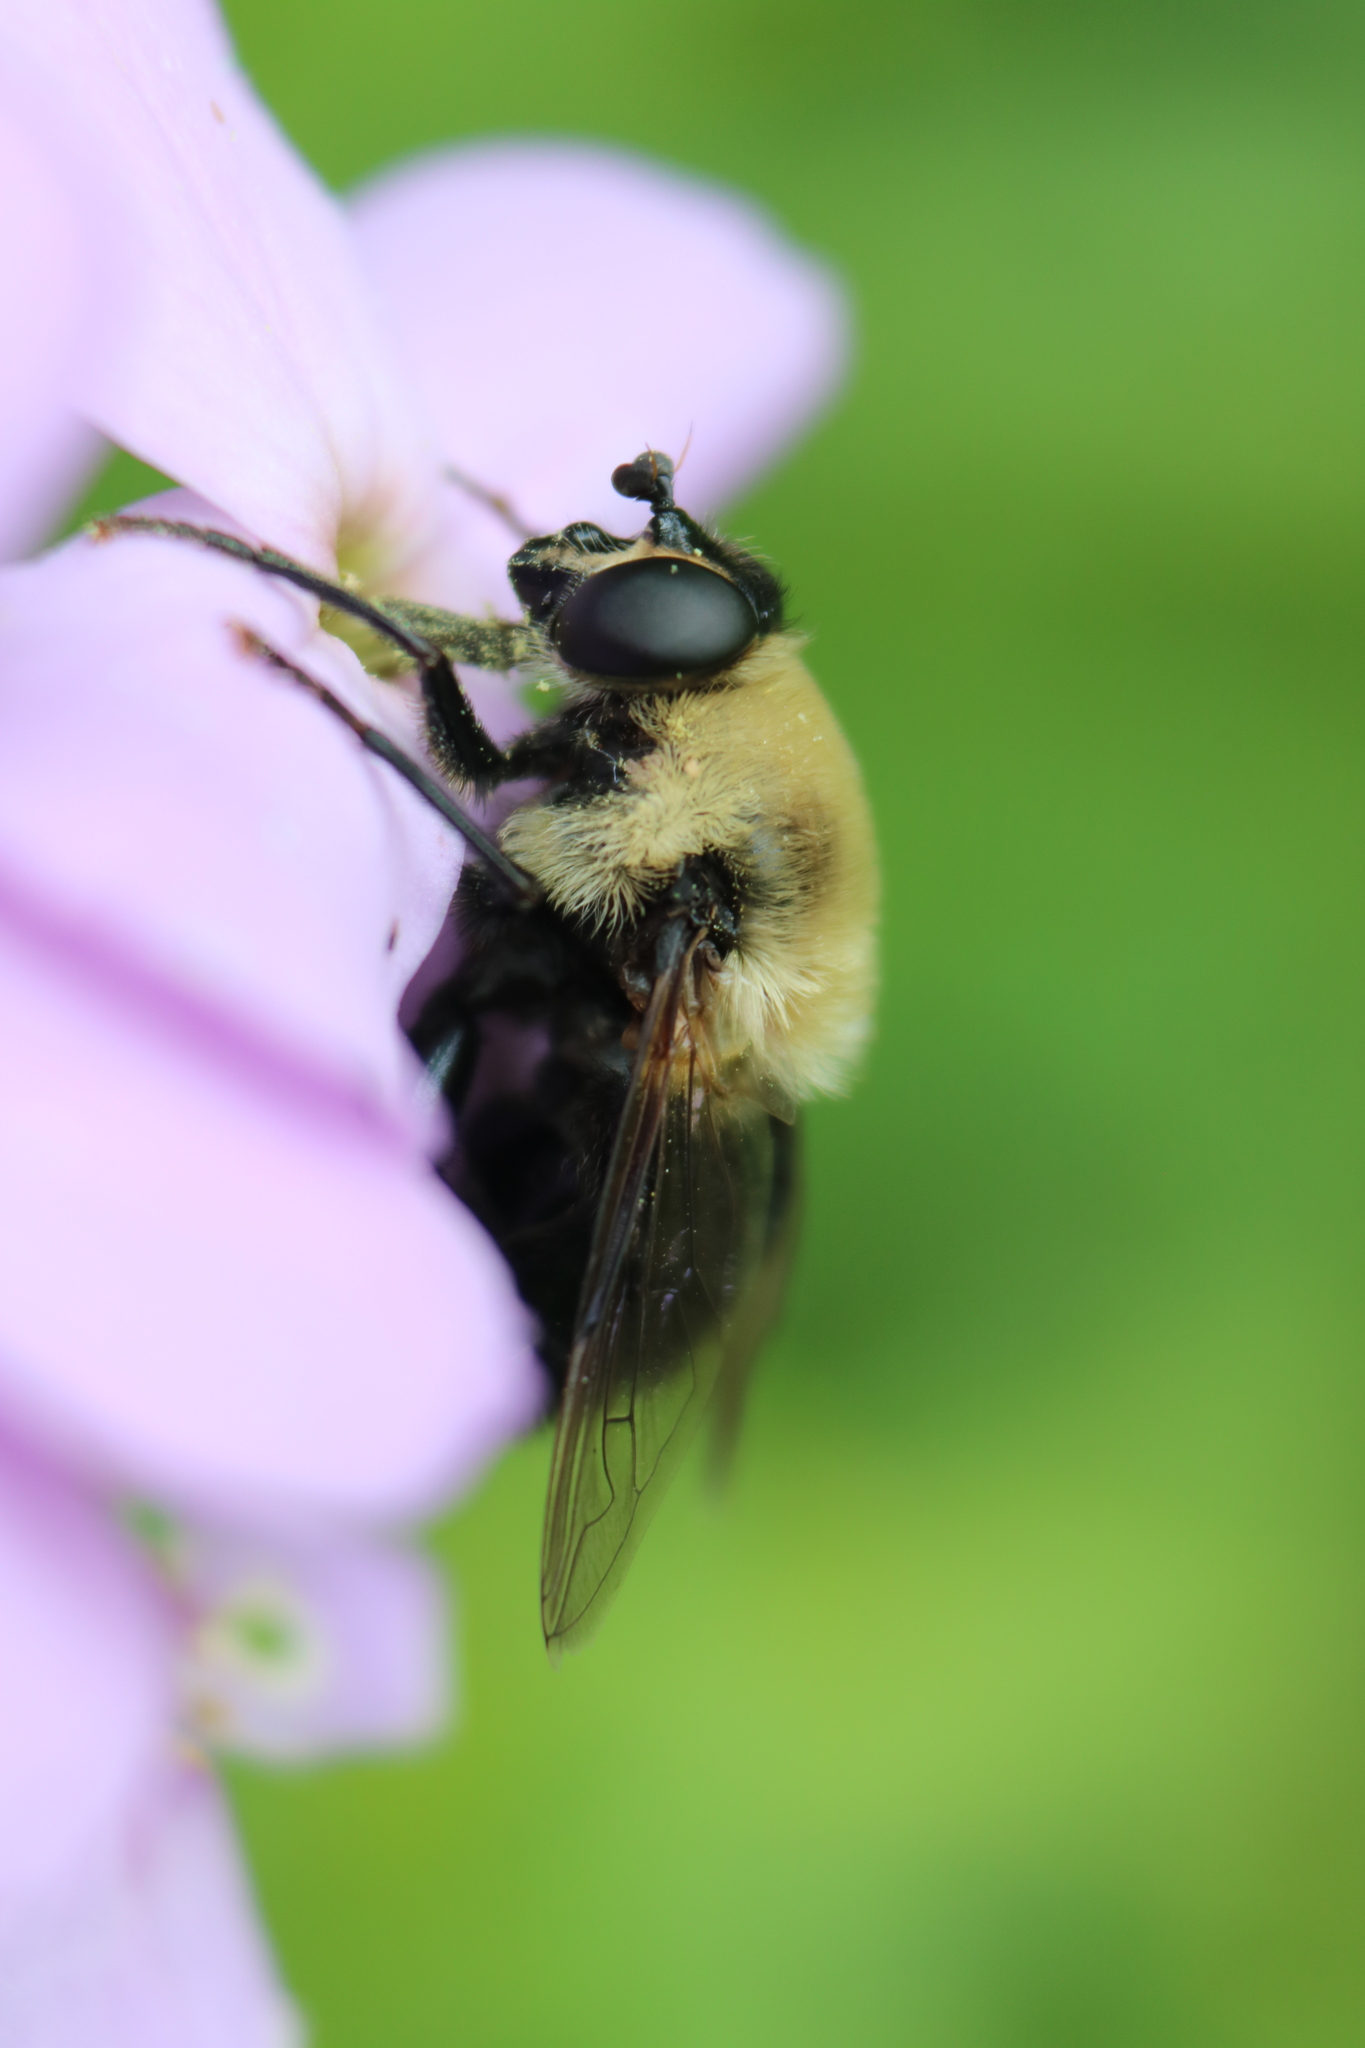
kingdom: Animalia
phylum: Arthropoda
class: Insecta
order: Diptera
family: Syrphidae
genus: Imatisma
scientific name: Imatisma bautias
